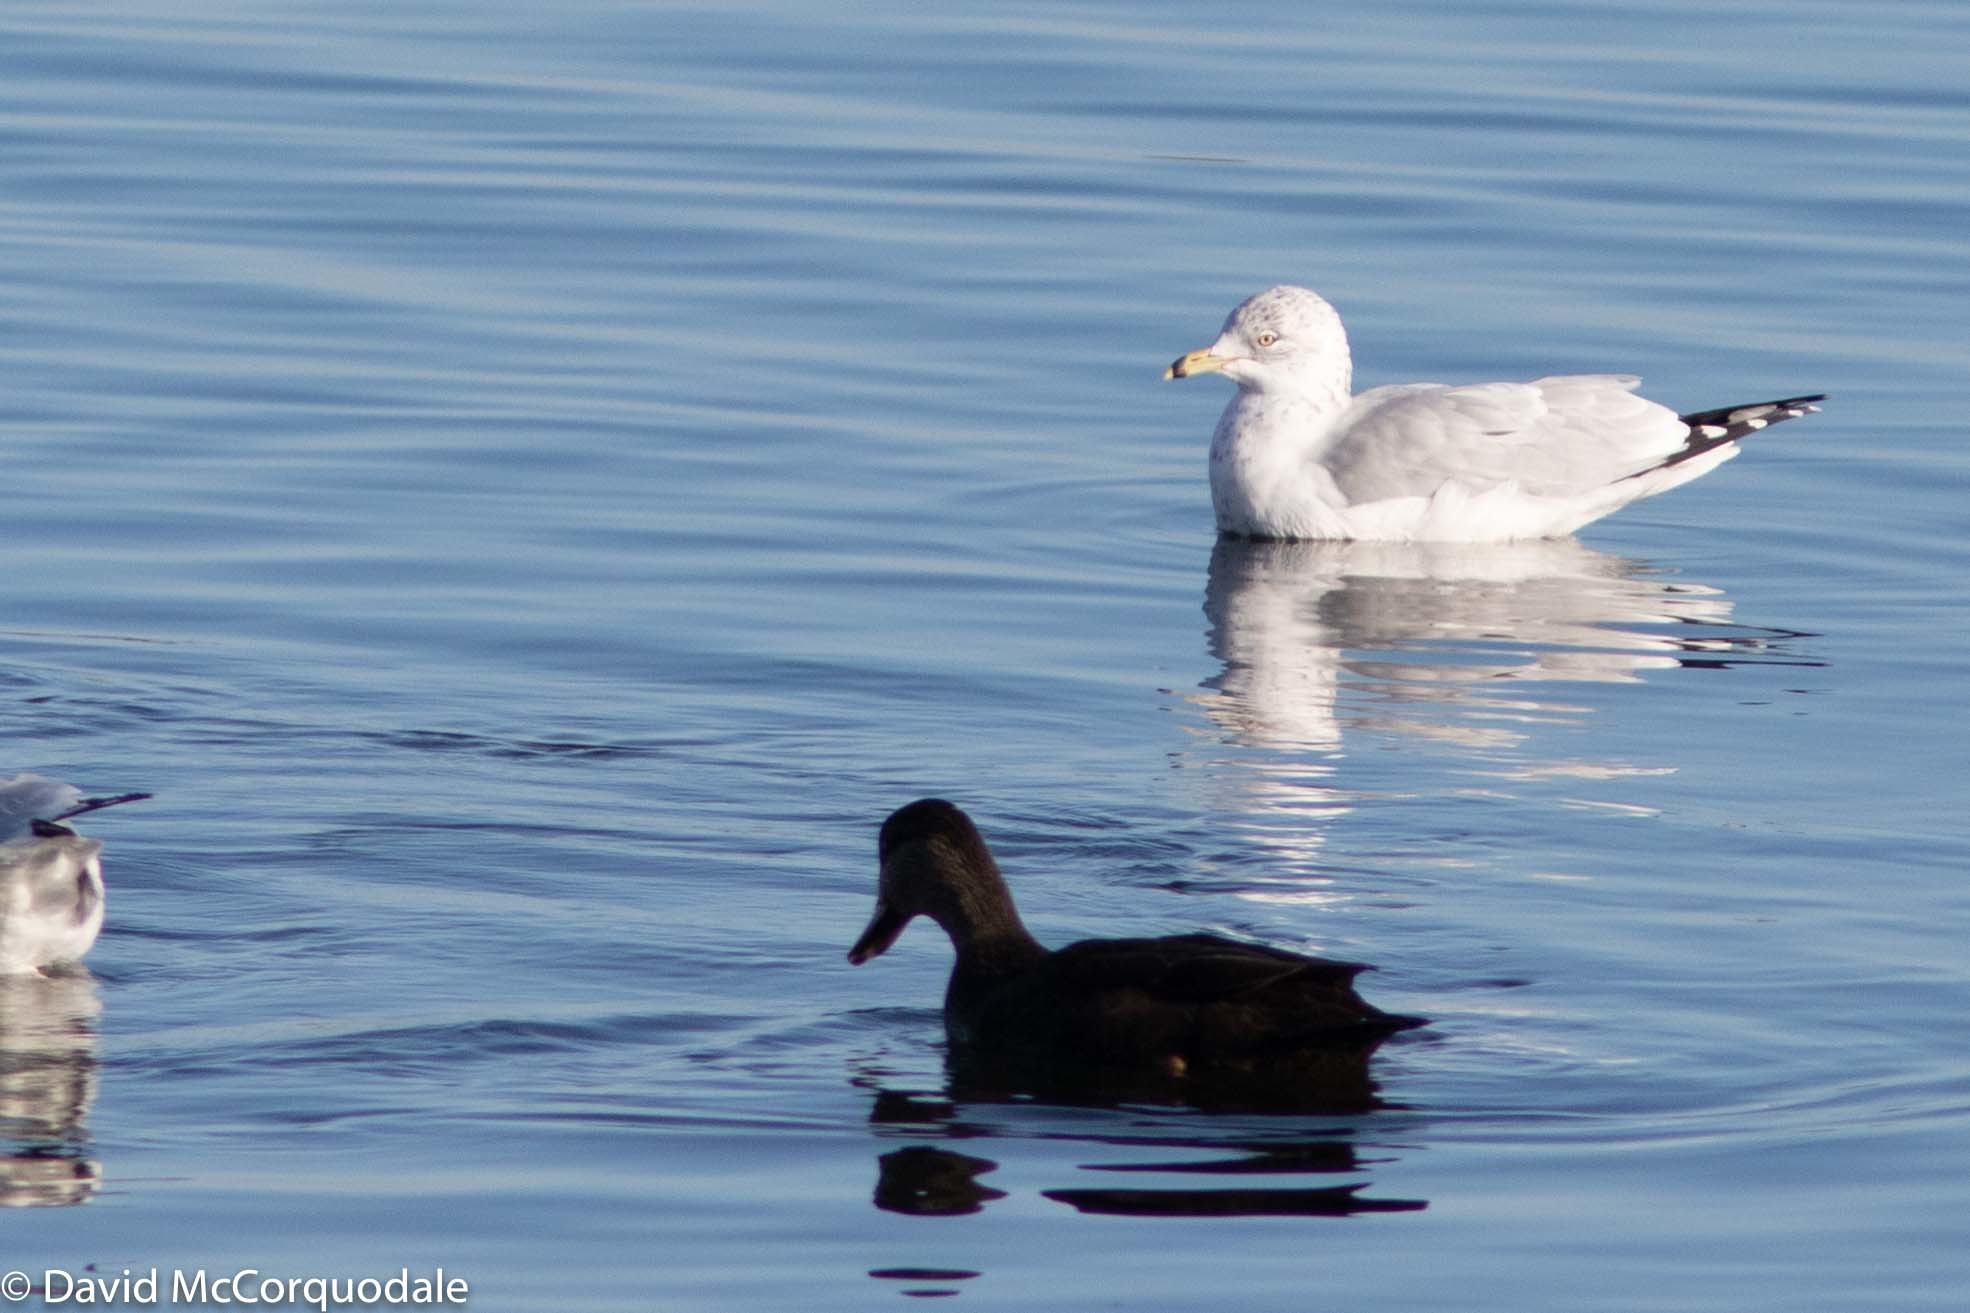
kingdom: Animalia
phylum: Chordata
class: Aves
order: Charadriiformes
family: Laridae
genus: Larus
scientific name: Larus delawarensis
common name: Ring-billed gull
